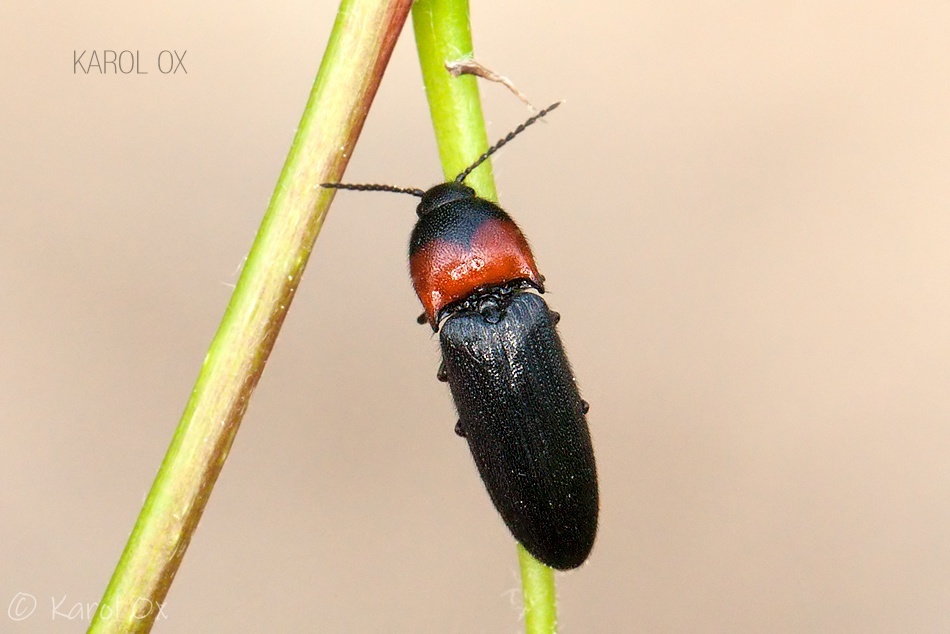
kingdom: Animalia
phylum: Arthropoda
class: Insecta
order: Coleoptera
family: Elateridae
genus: Ampedus
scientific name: Ampedus sinuatus
